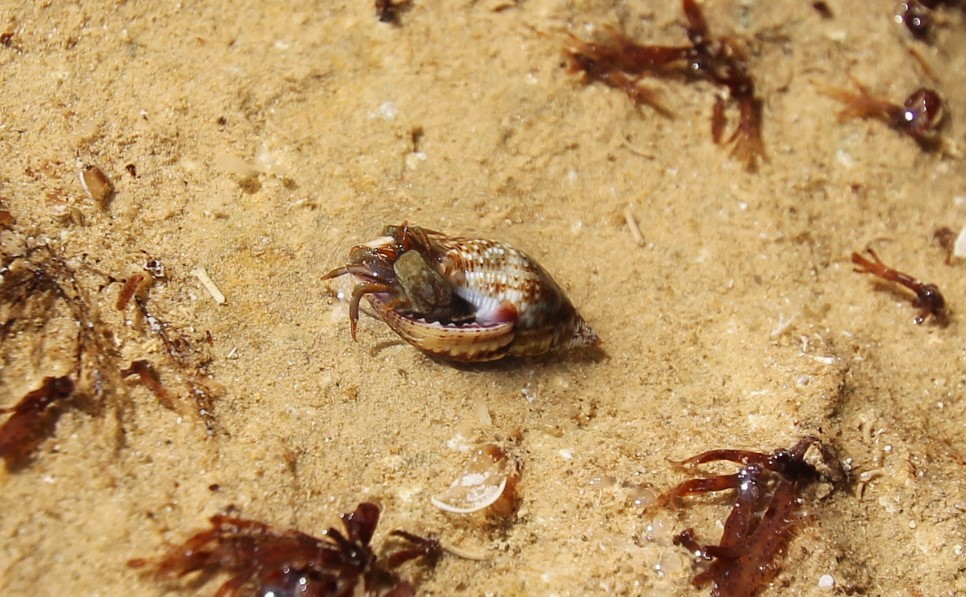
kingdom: Animalia
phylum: Arthropoda
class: Malacostraca
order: Decapoda
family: Diogenidae
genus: Clibanarius
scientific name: Clibanarius erythropus
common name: Hermit crab
